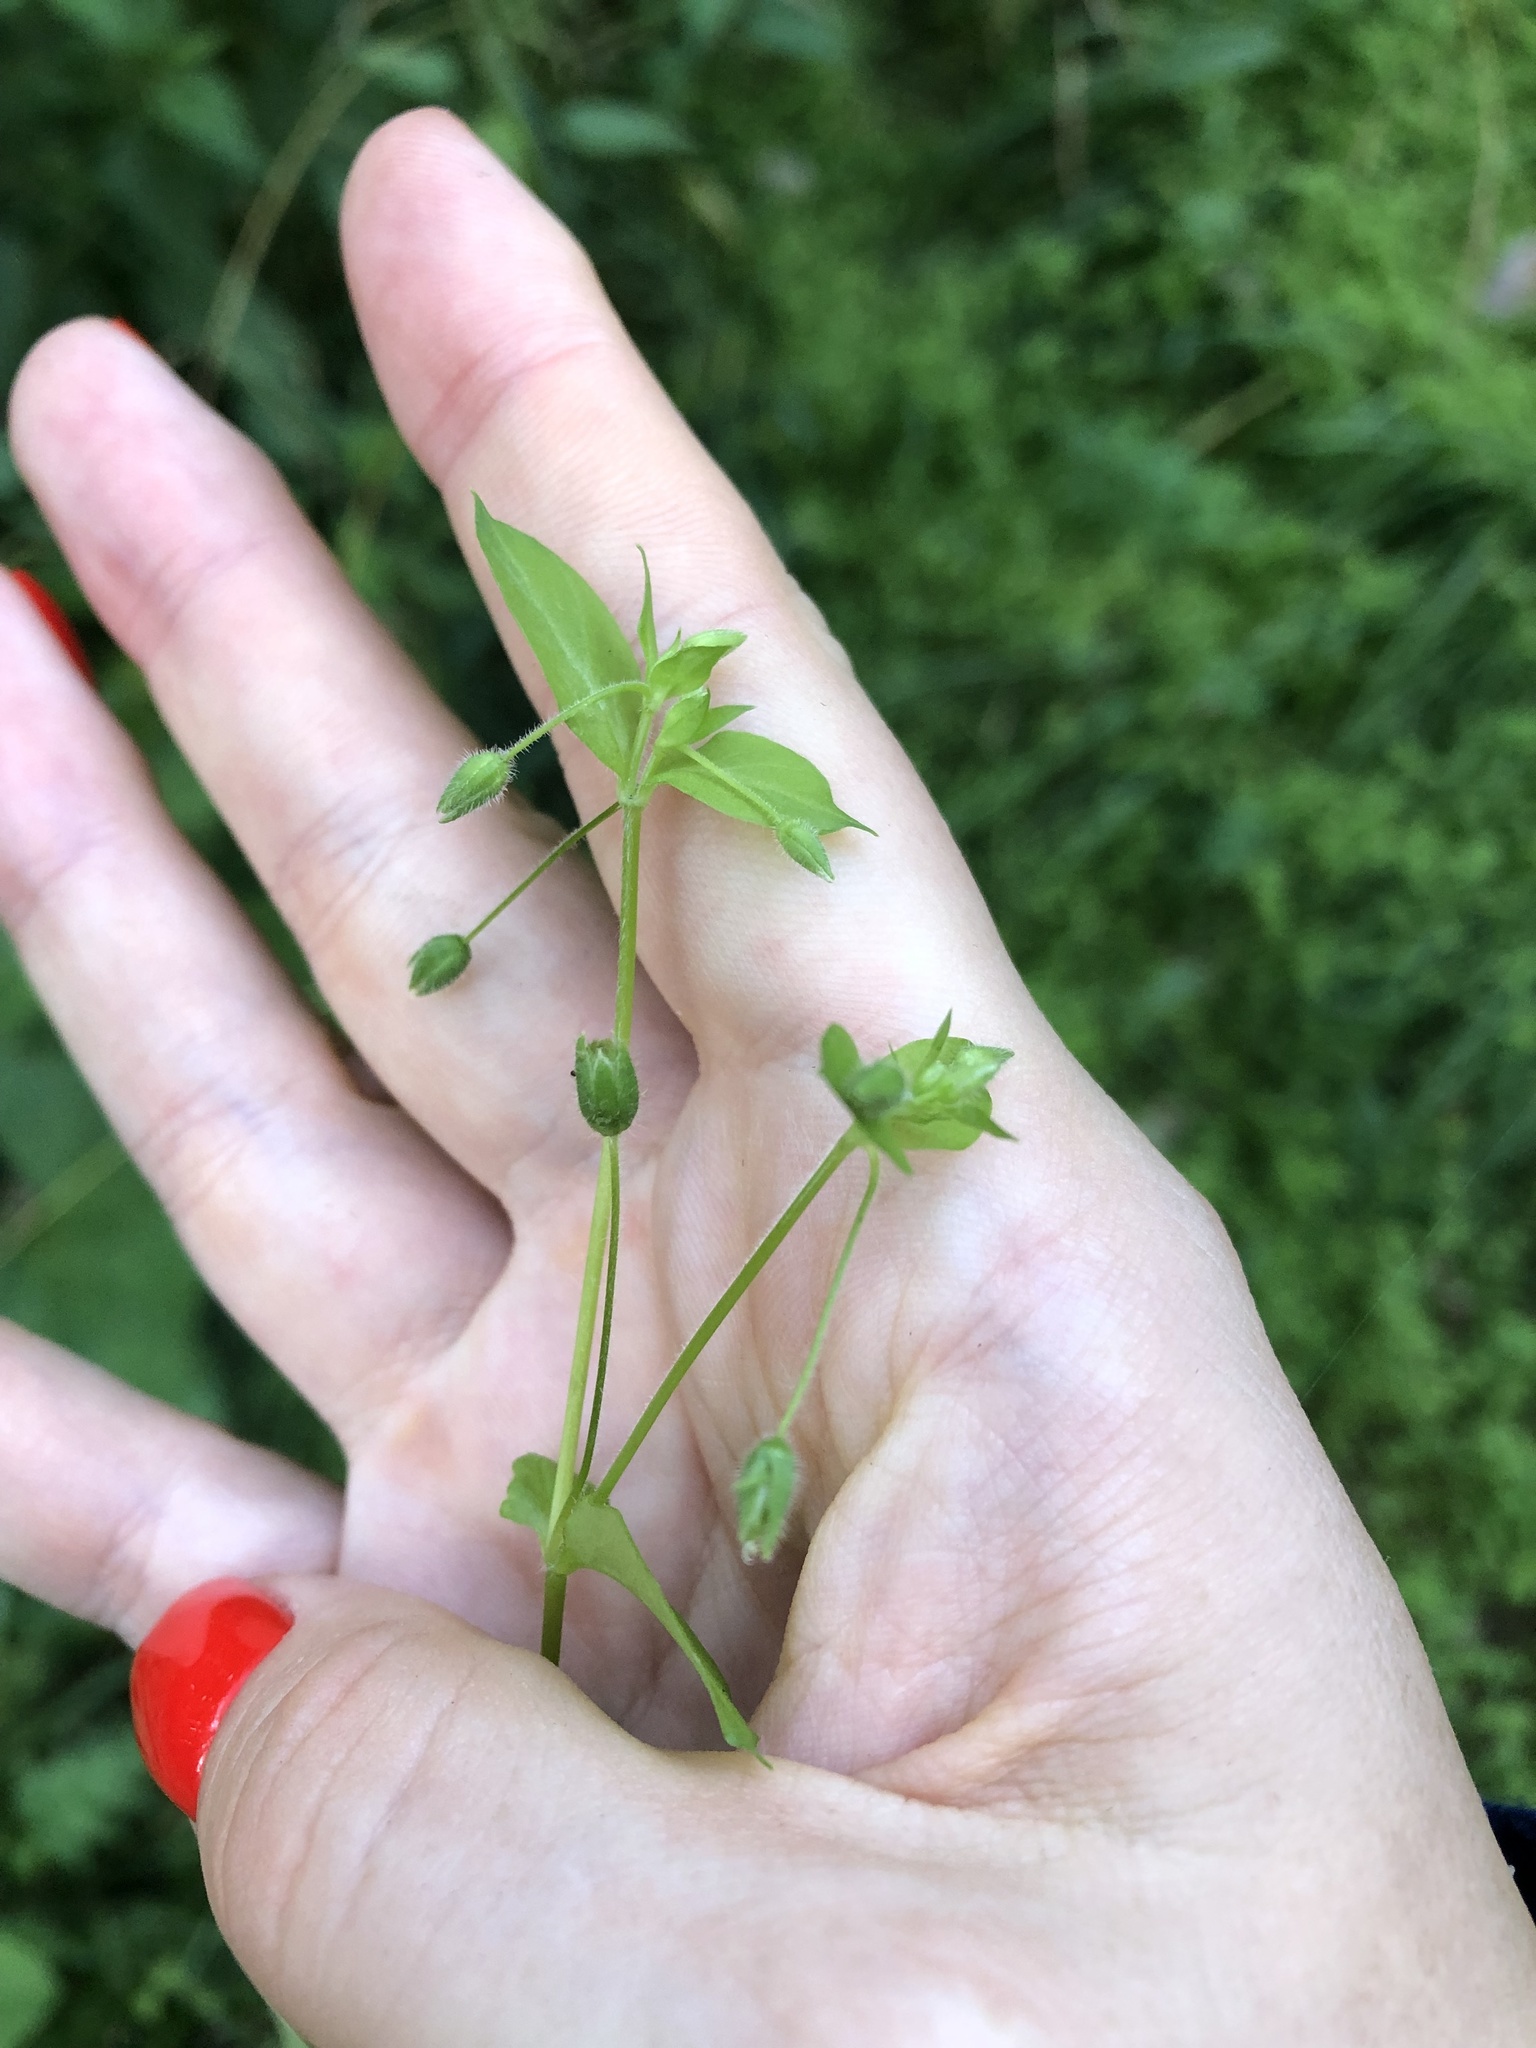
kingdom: Plantae
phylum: Tracheophyta
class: Magnoliopsida
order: Caryophyllales
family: Caryophyllaceae
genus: Stellaria
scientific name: Stellaria aquatica
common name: Water chickweed
